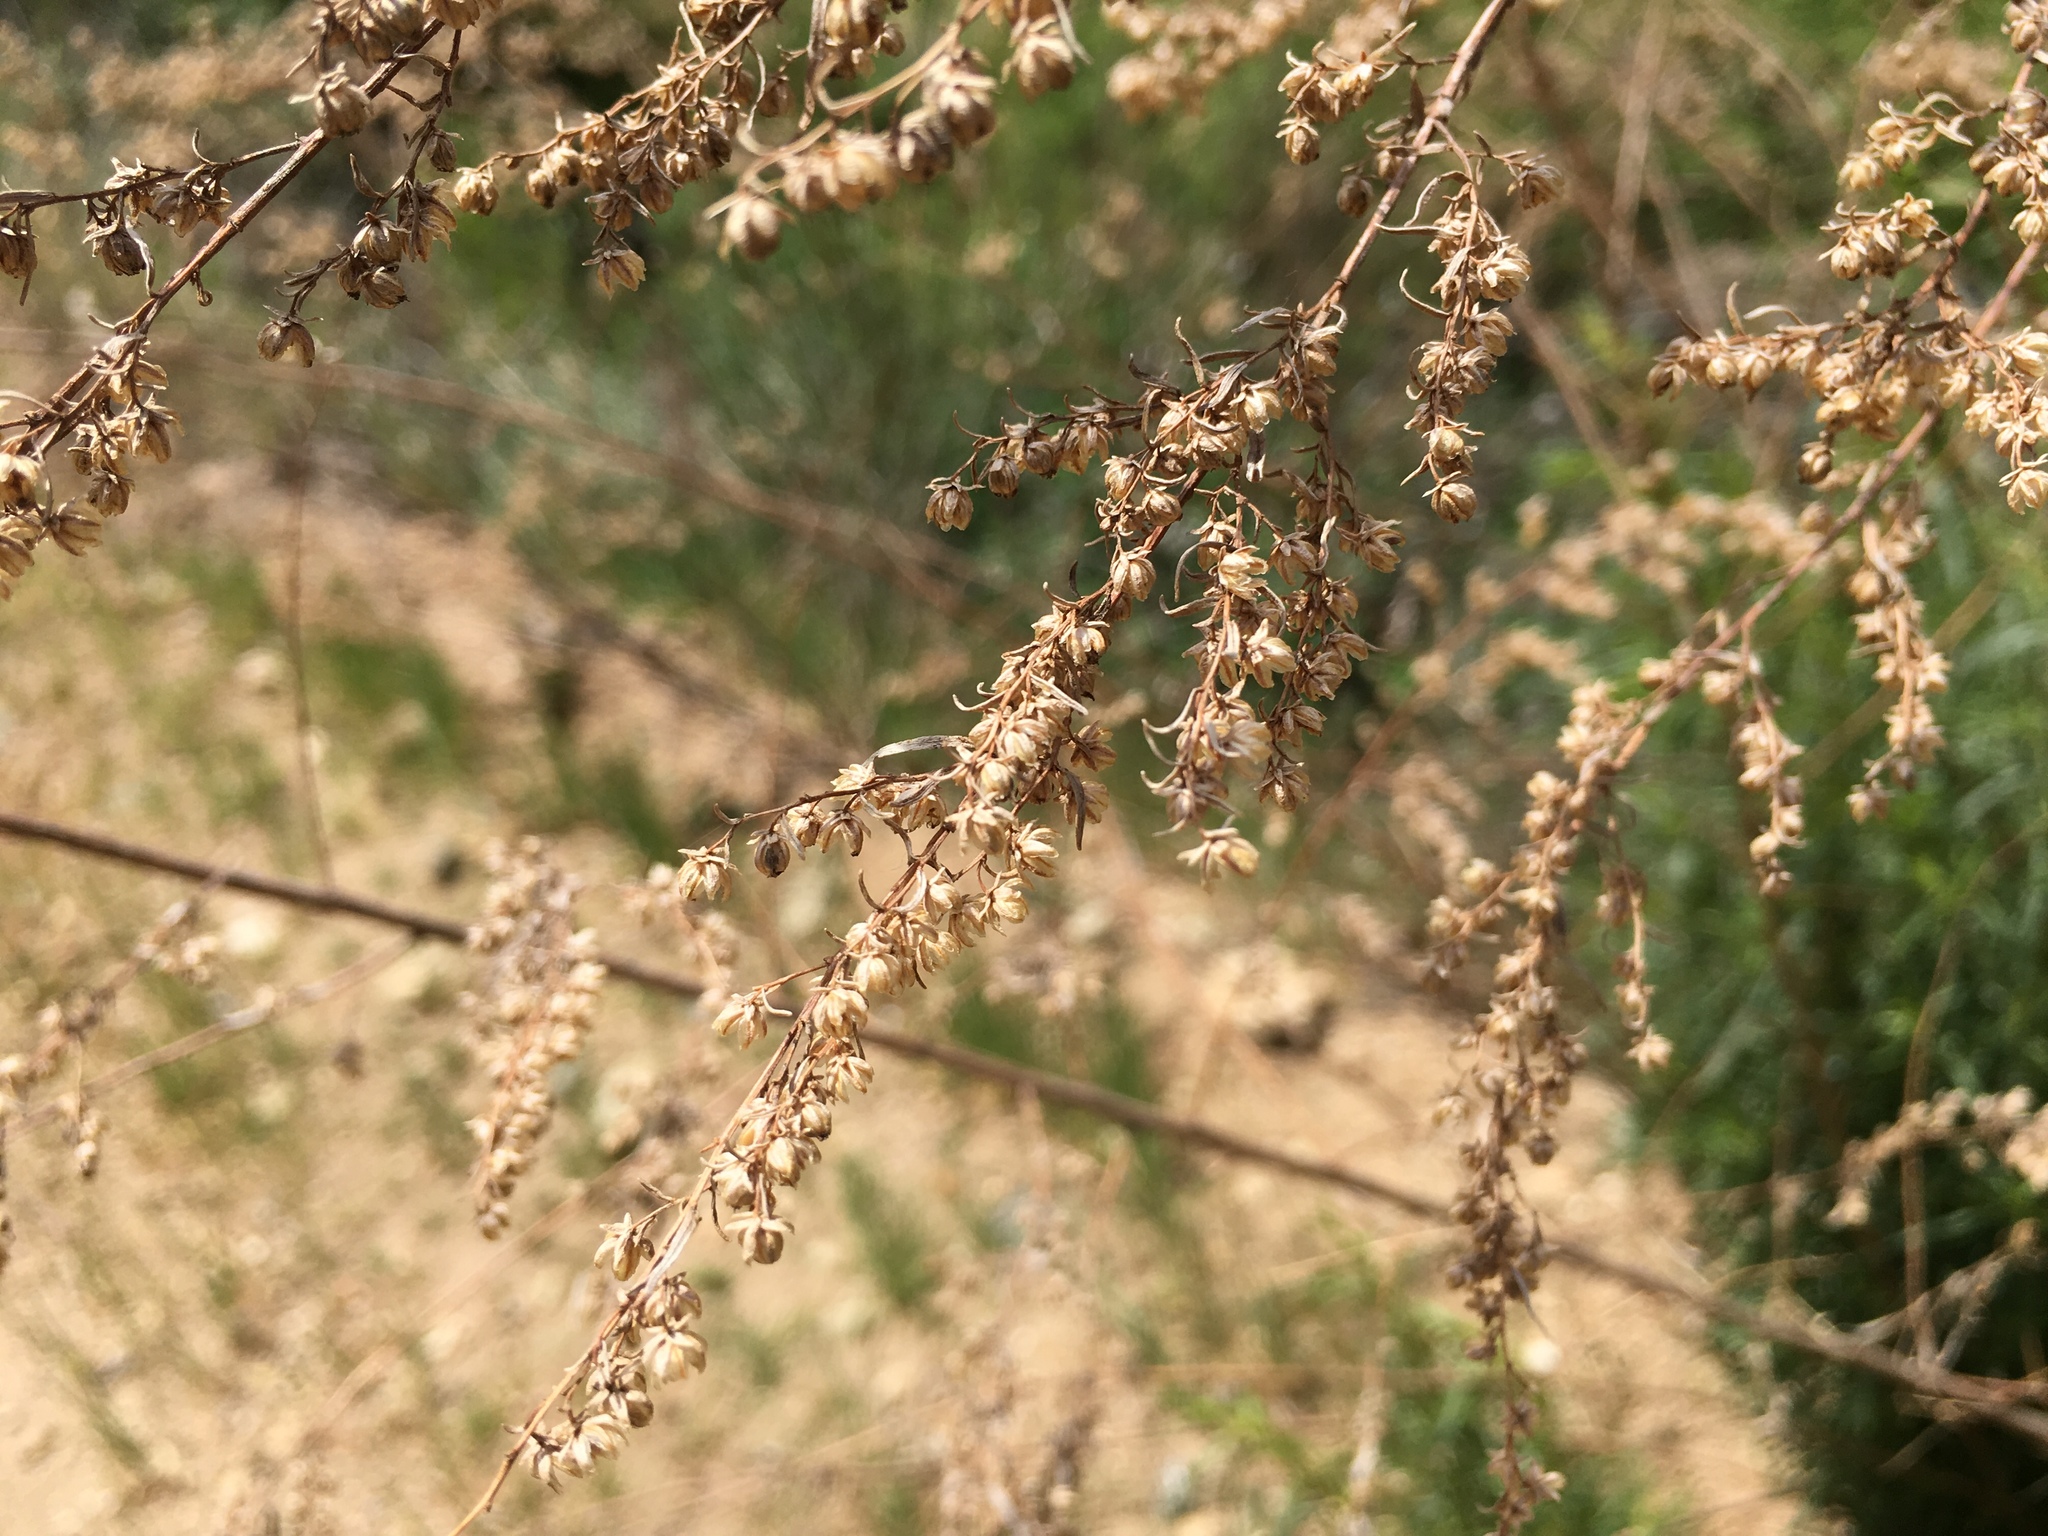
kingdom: Plantae
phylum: Tracheophyta
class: Magnoliopsida
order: Asterales
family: Asteraceae
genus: Artemisia
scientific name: Artemisia dracunculus
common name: Tarragon
